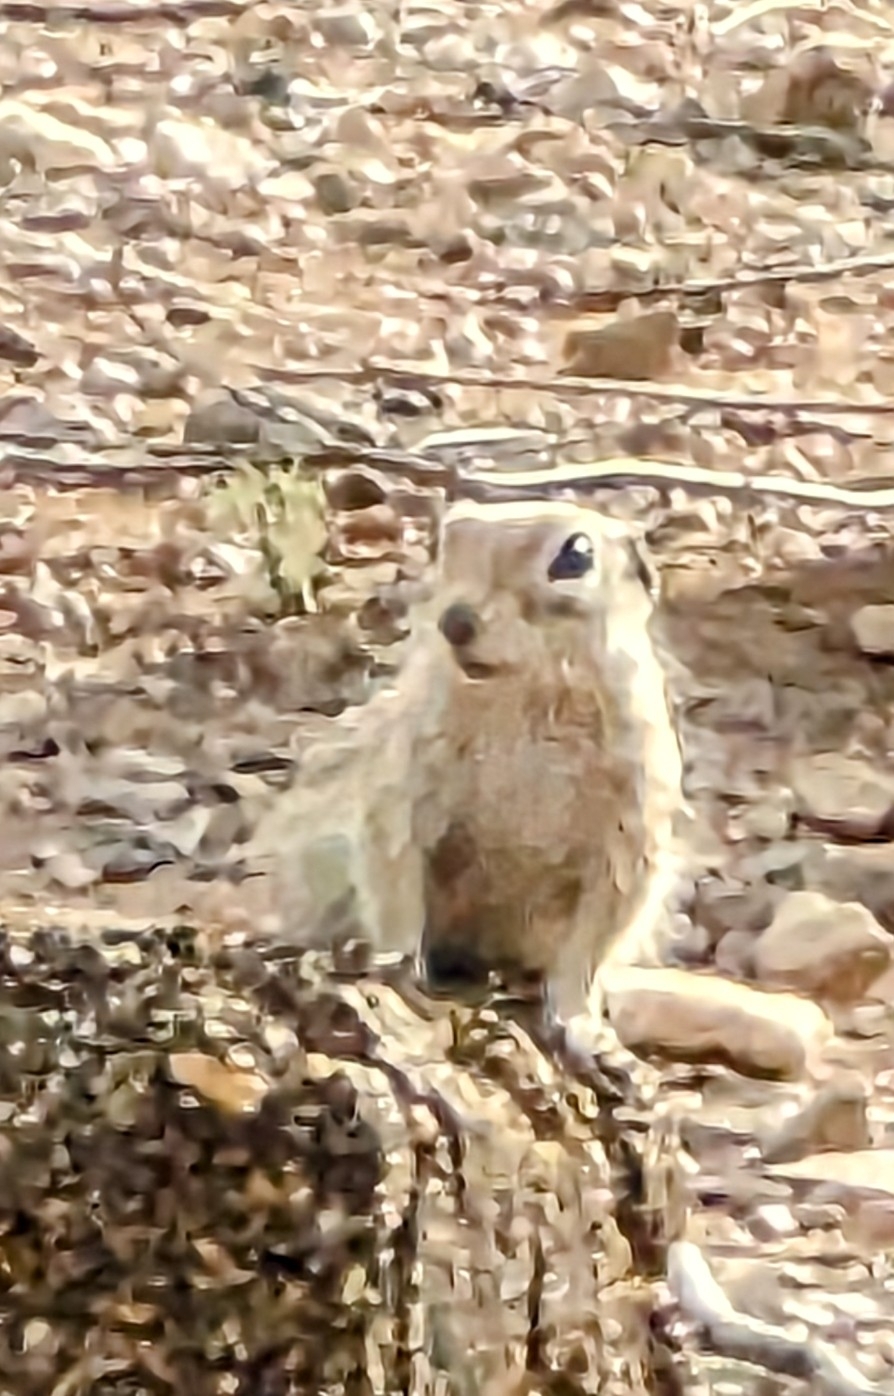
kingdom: Animalia
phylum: Chordata
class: Mammalia
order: Rodentia
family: Sciuridae
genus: Xerospermophilus
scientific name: Xerospermophilus spilosoma
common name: Spotted ground squirrel
